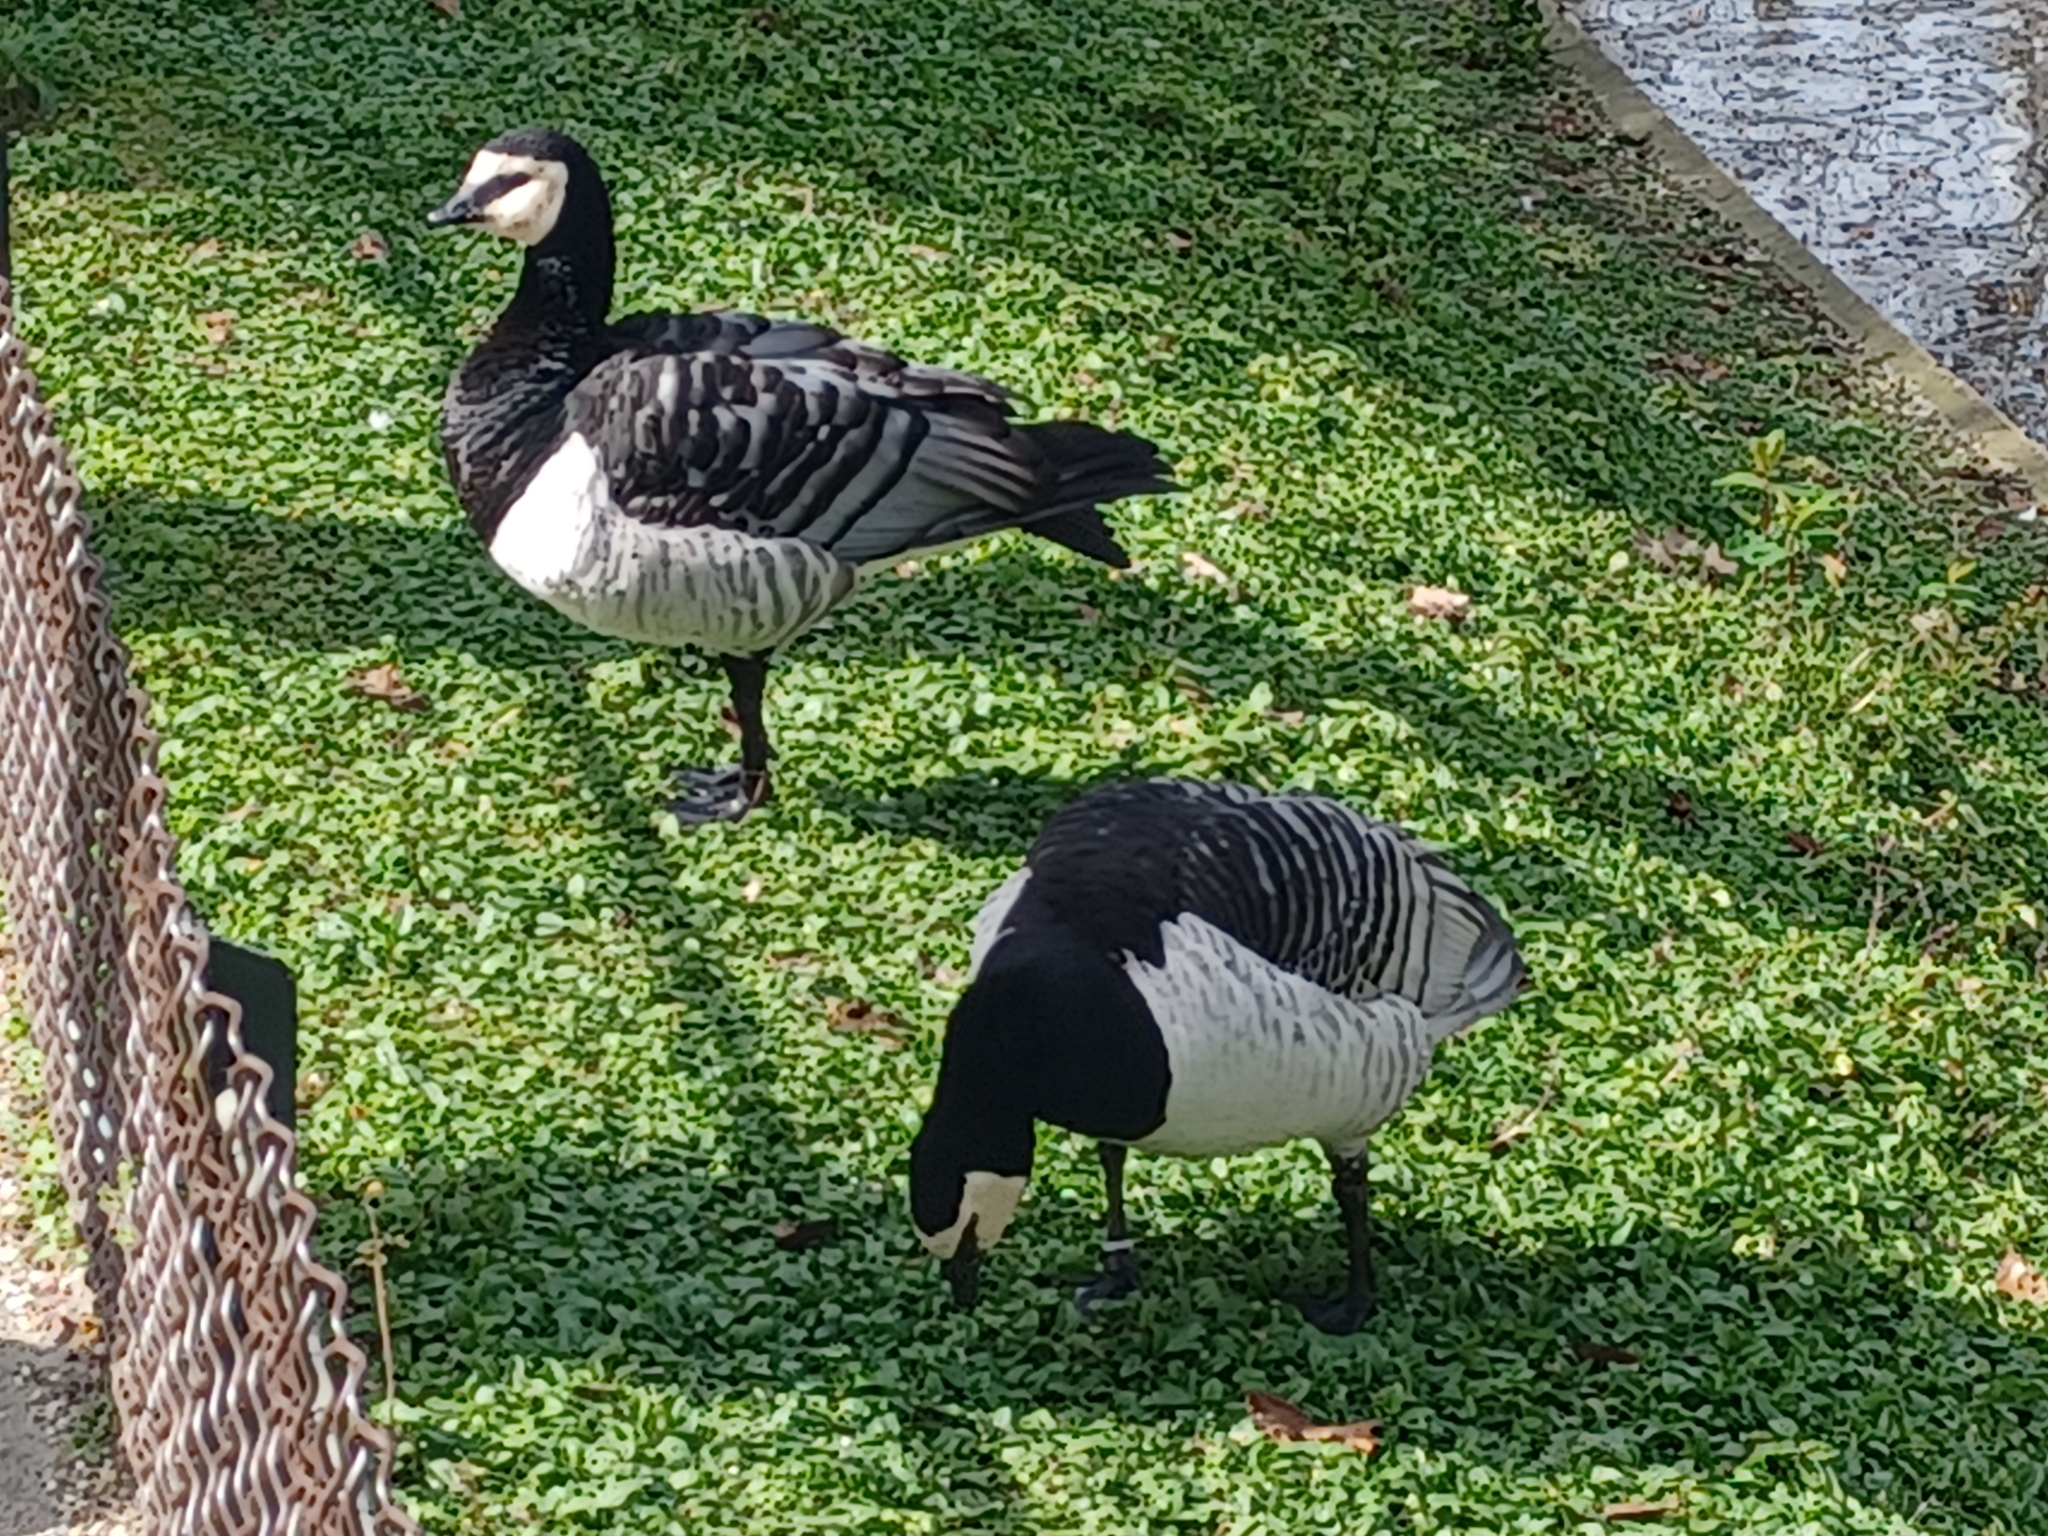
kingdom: Animalia
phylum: Chordata
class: Aves
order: Anseriformes
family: Anatidae
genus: Branta
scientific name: Branta leucopsis
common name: Barnacle goose
